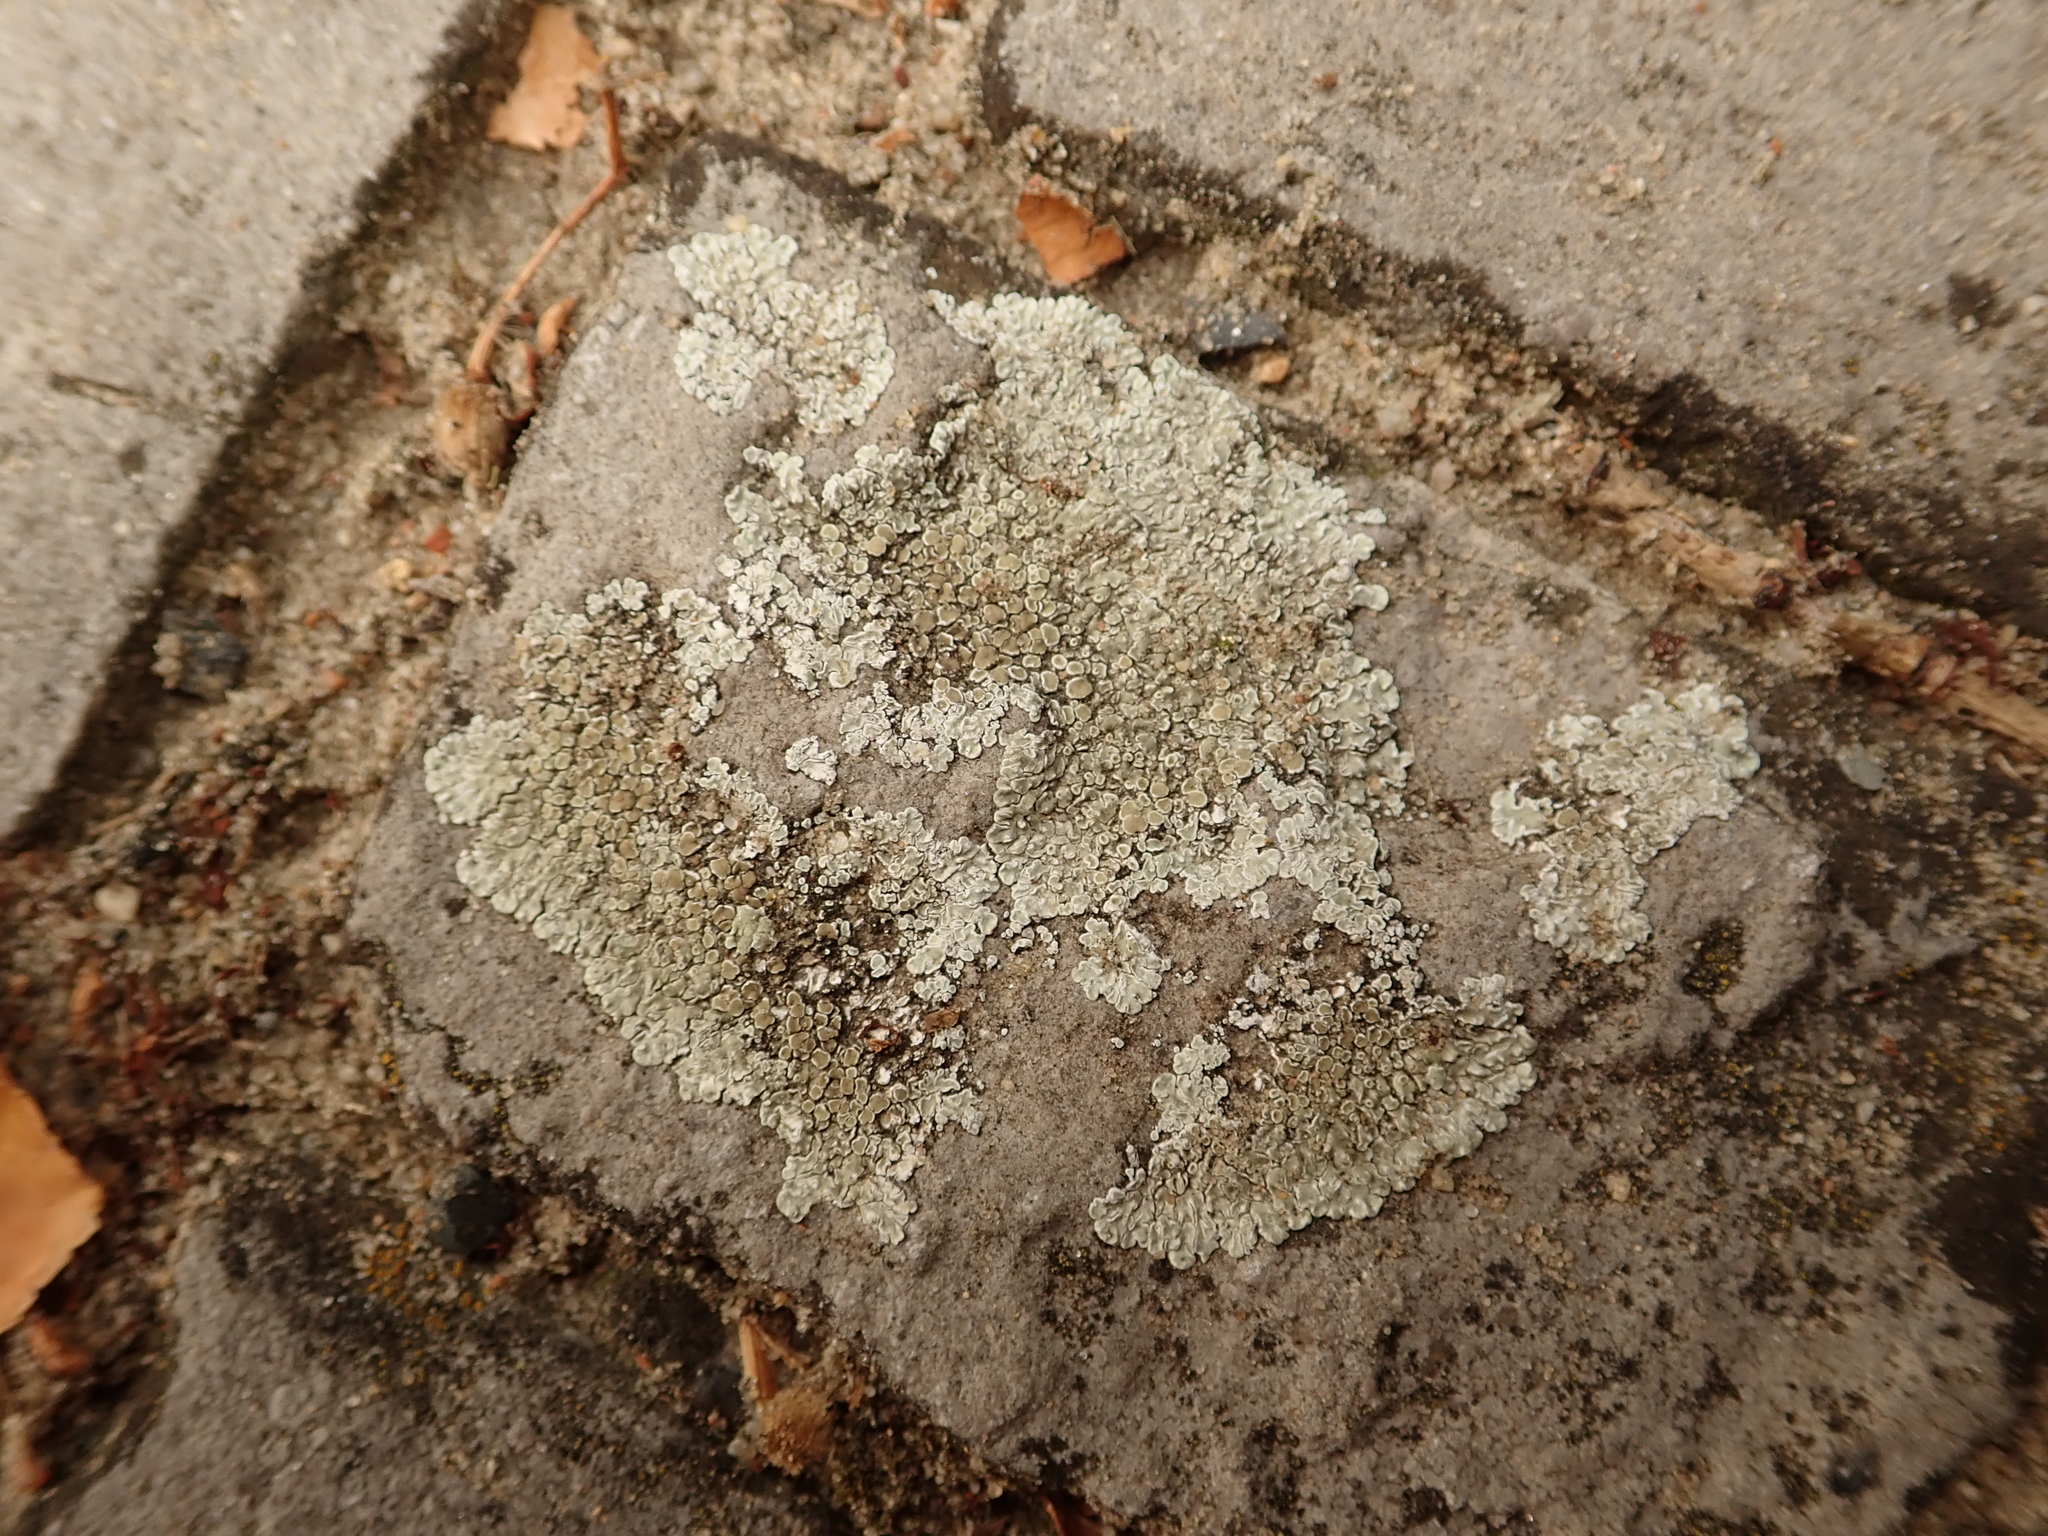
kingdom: Fungi
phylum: Ascomycota
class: Lecanoromycetes
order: Lecanorales
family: Lecanoraceae
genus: Protoparmeliopsis
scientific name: Protoparmeliopsis muralis
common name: Stonewall rim lichen
